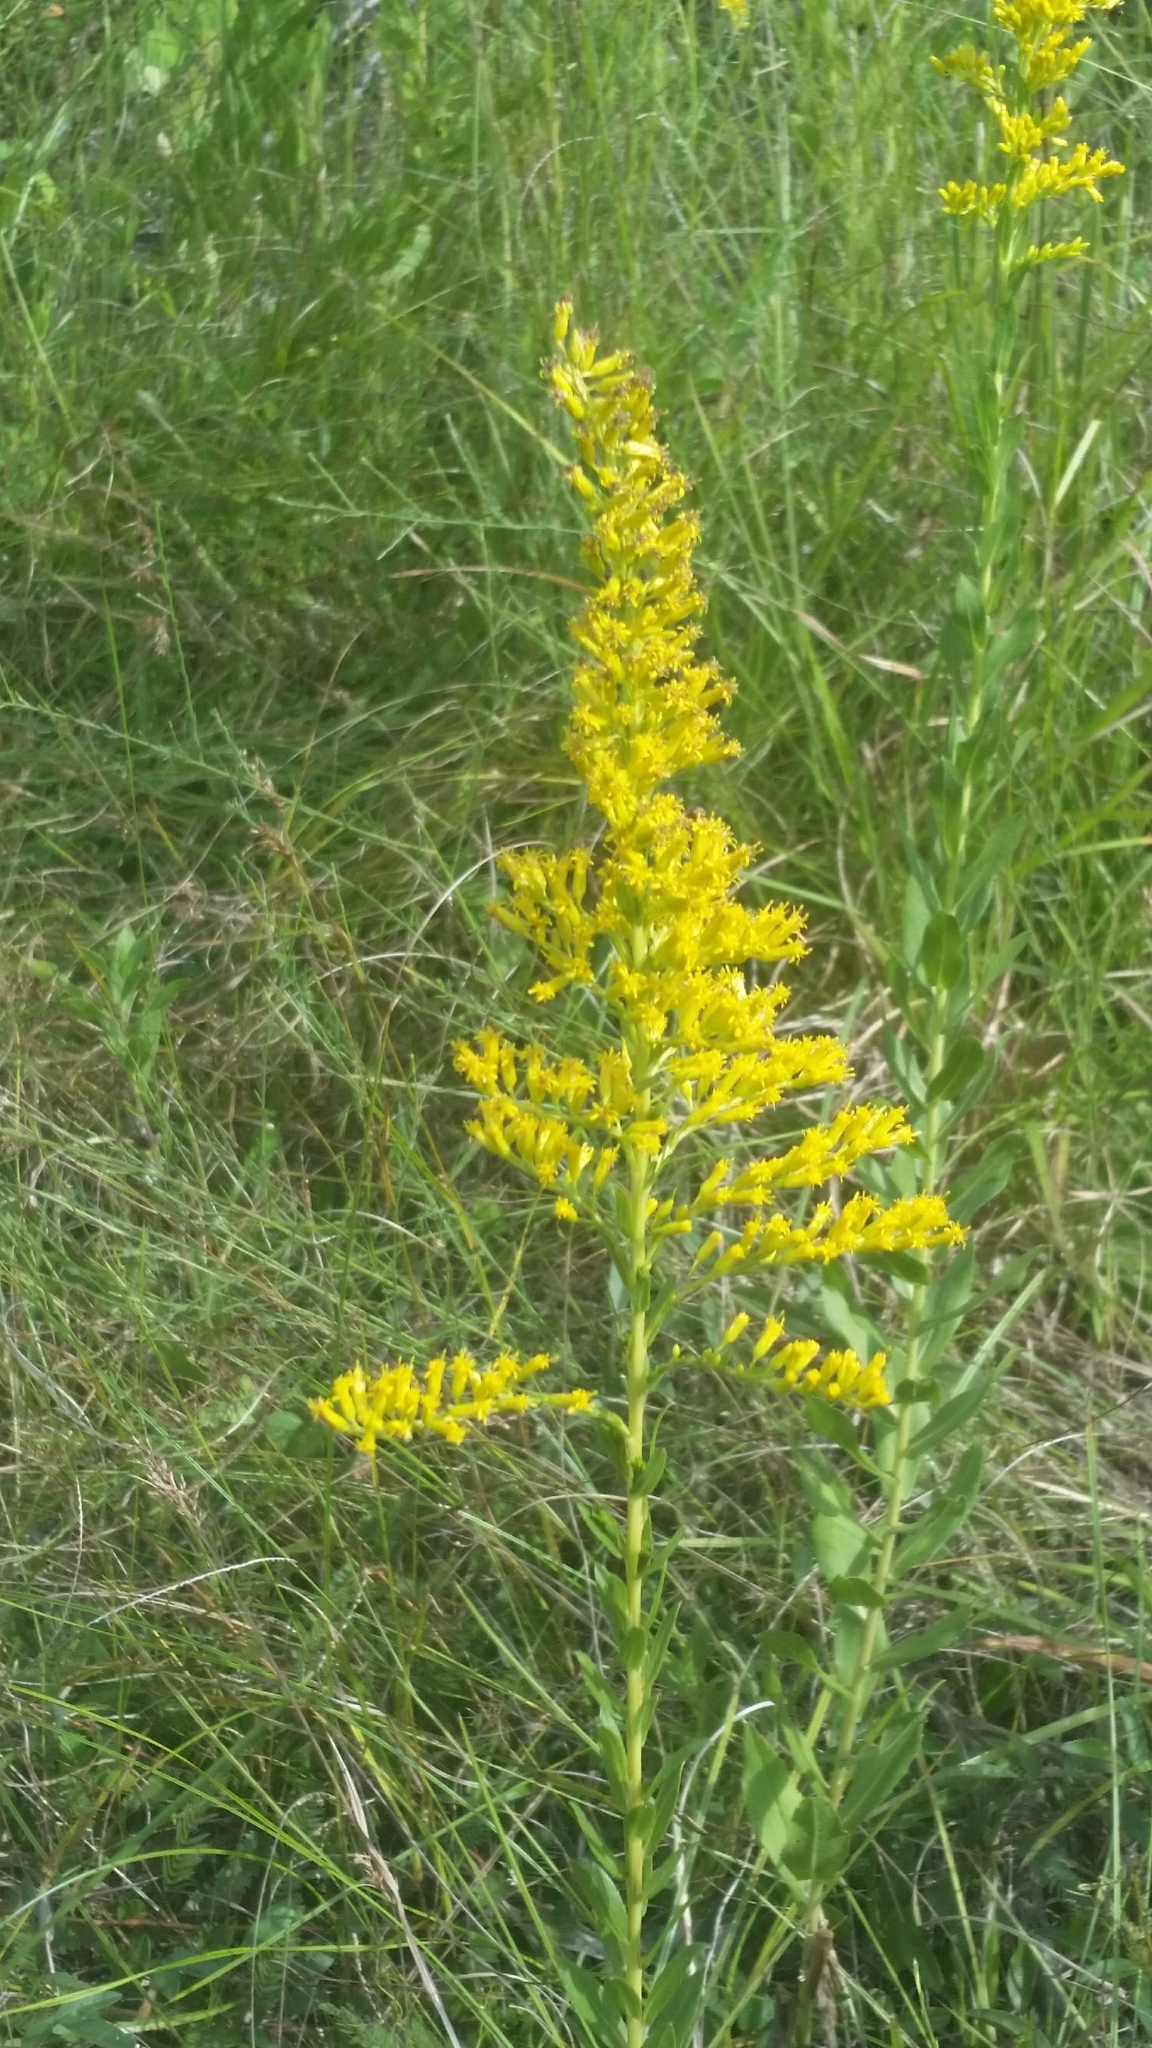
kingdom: Plantae
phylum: Tracheophyta
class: Magnoliopsida
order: Asterales
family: Asteraceae
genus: Solidago
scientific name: Solidago fistulosa
